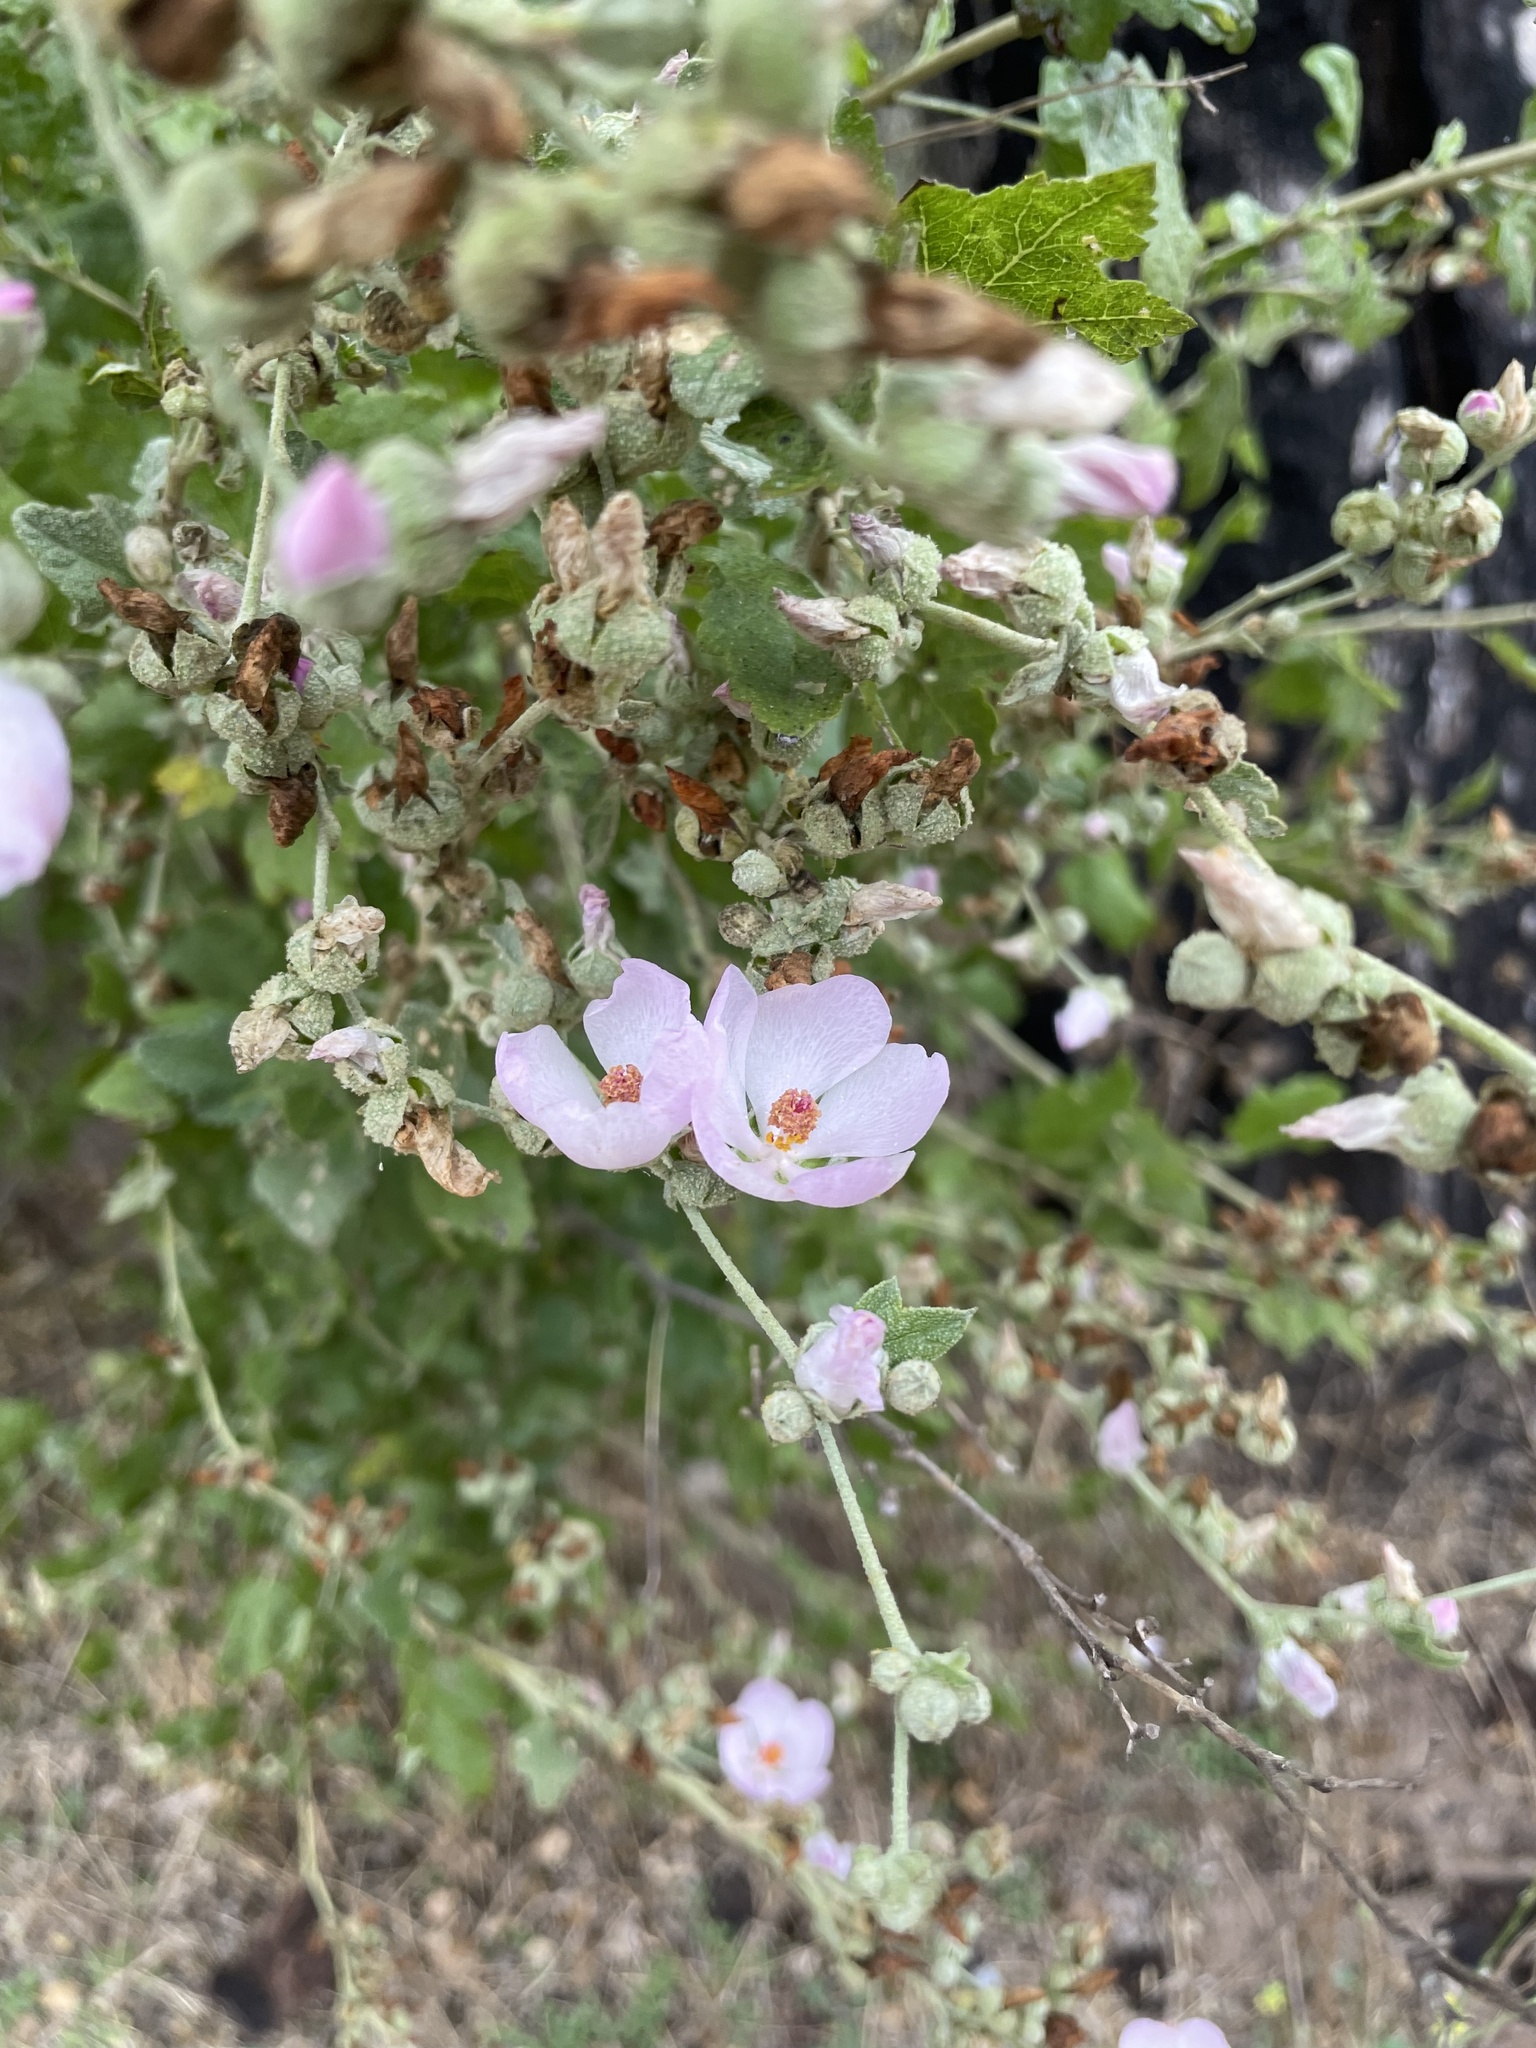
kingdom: Plantae
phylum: Tracheophyta
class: Magnoliopsida
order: Malvales
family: Malvaceae
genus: Malacothamnus
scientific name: Malacothamnus fasciculatus
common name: Sant cruz island bush-mallow
